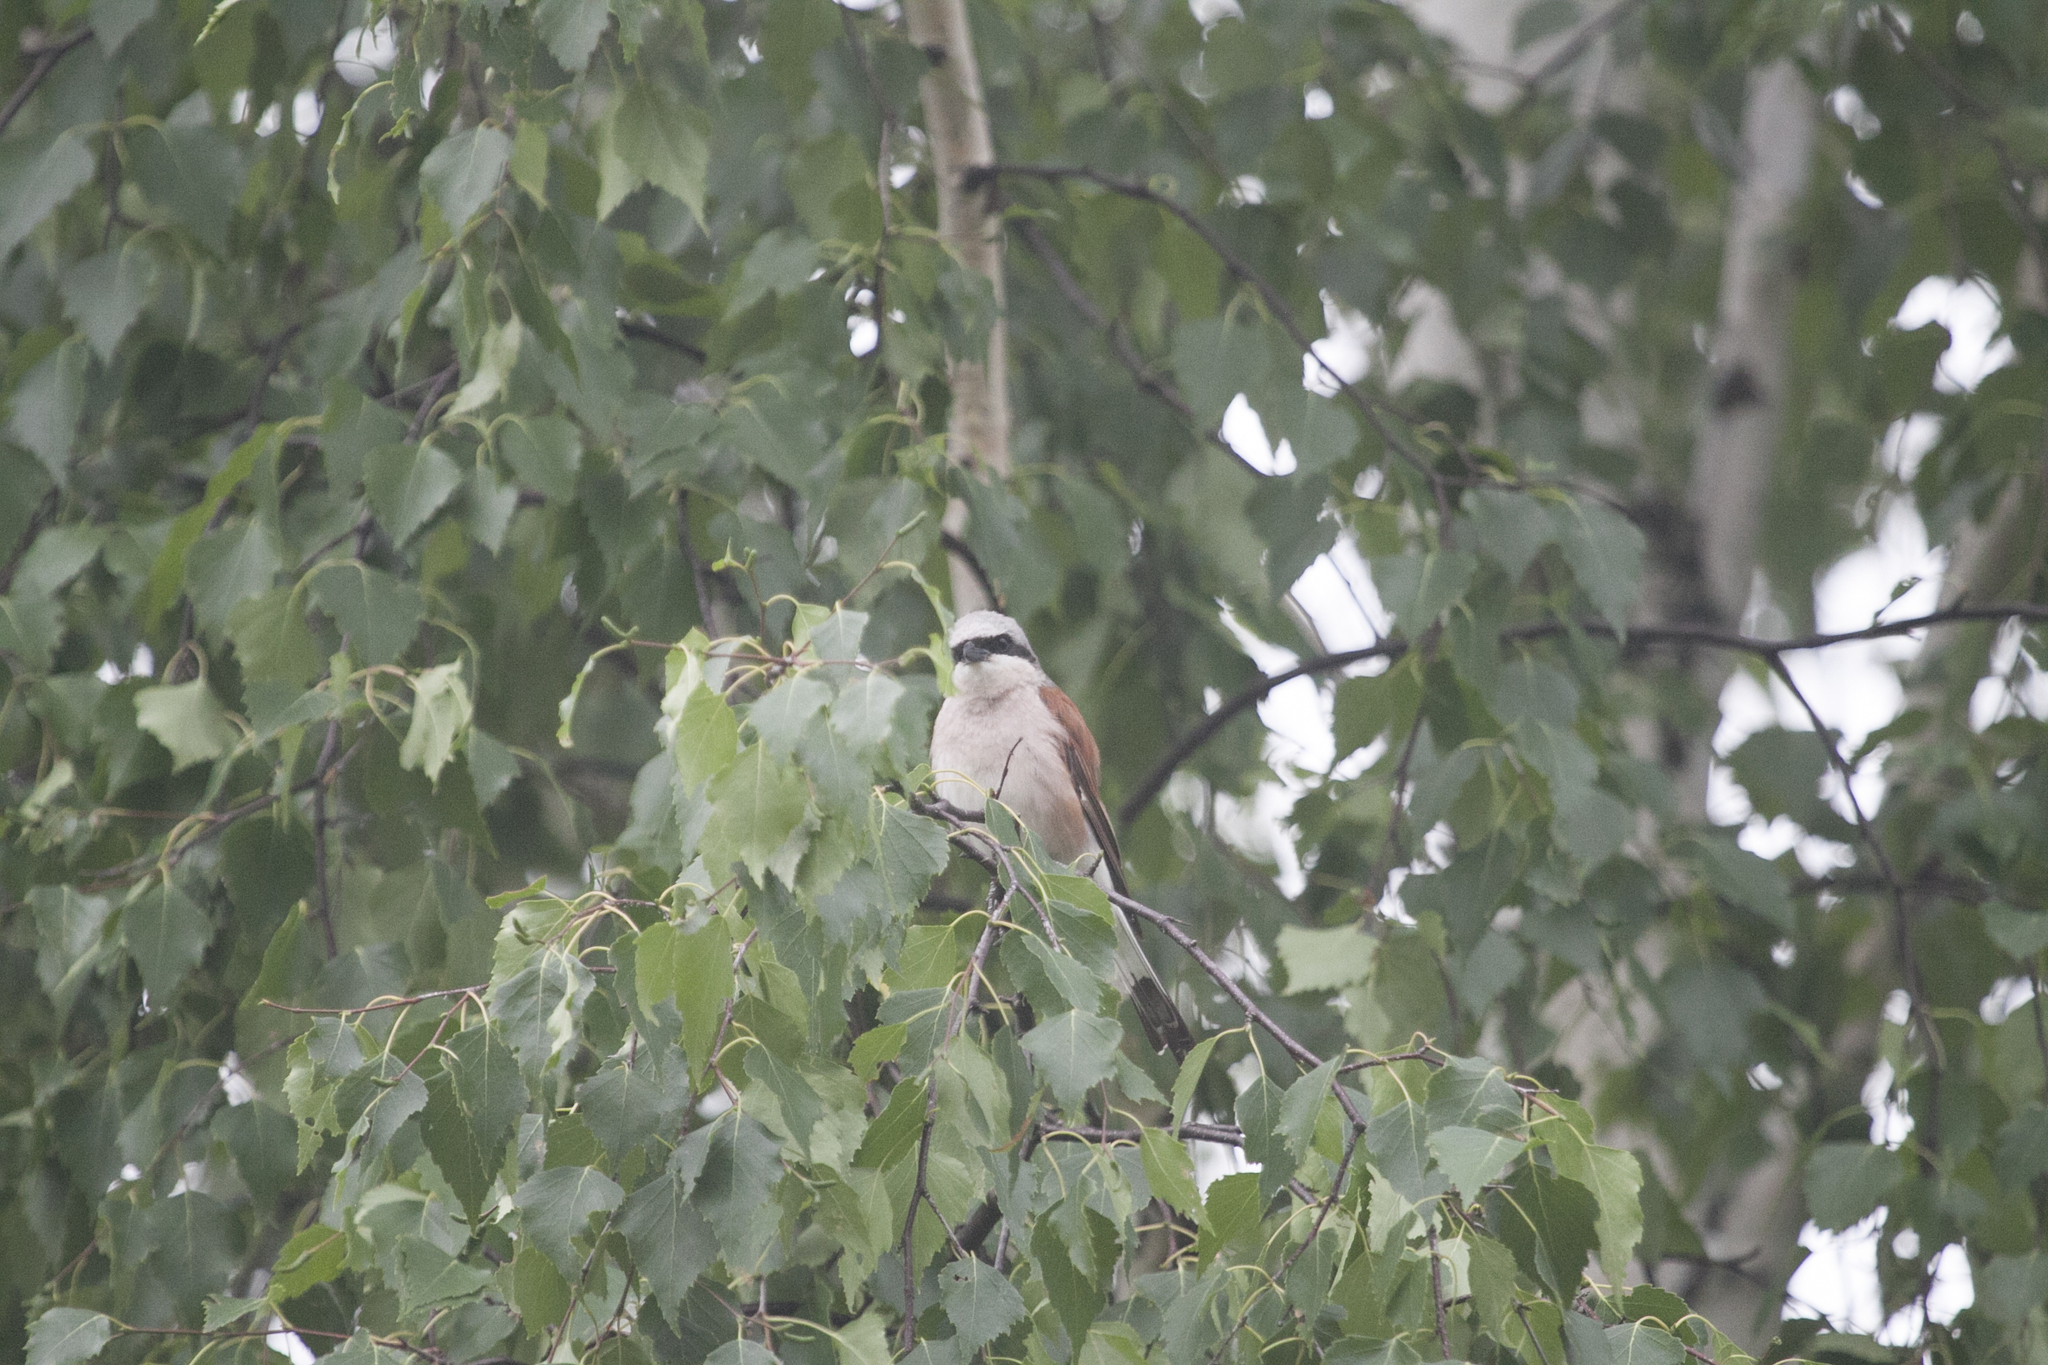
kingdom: Animalia
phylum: Chordata
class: Aves
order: Passeriformes
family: Laniidae
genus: Lanius
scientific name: Lanius collurio
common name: Red-backed shrike
